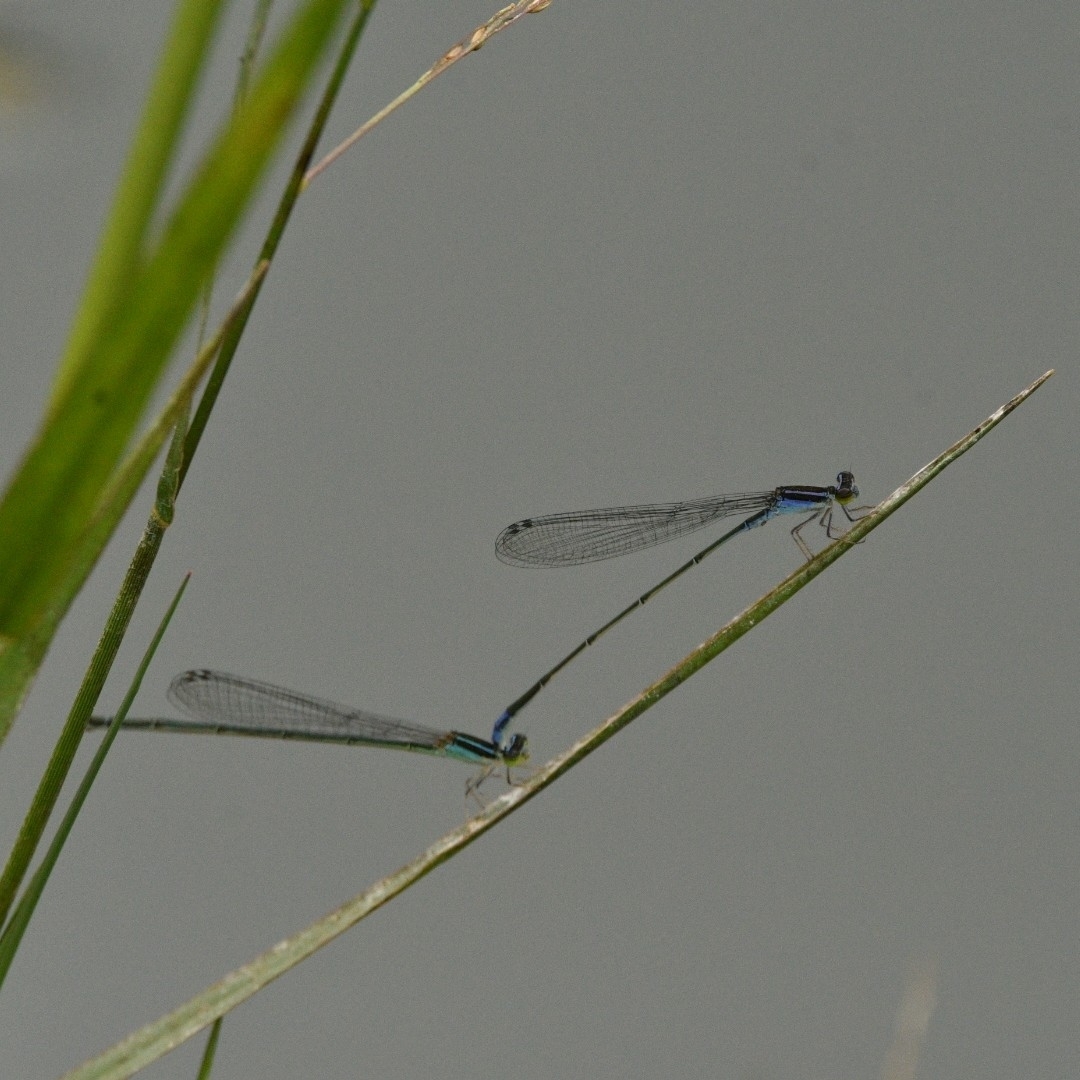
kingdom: Animalia
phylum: Arthropoda
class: Insecta
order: Odonata
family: Coenagrionidae
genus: Aciagrion
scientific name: Aciagrion occidentale
